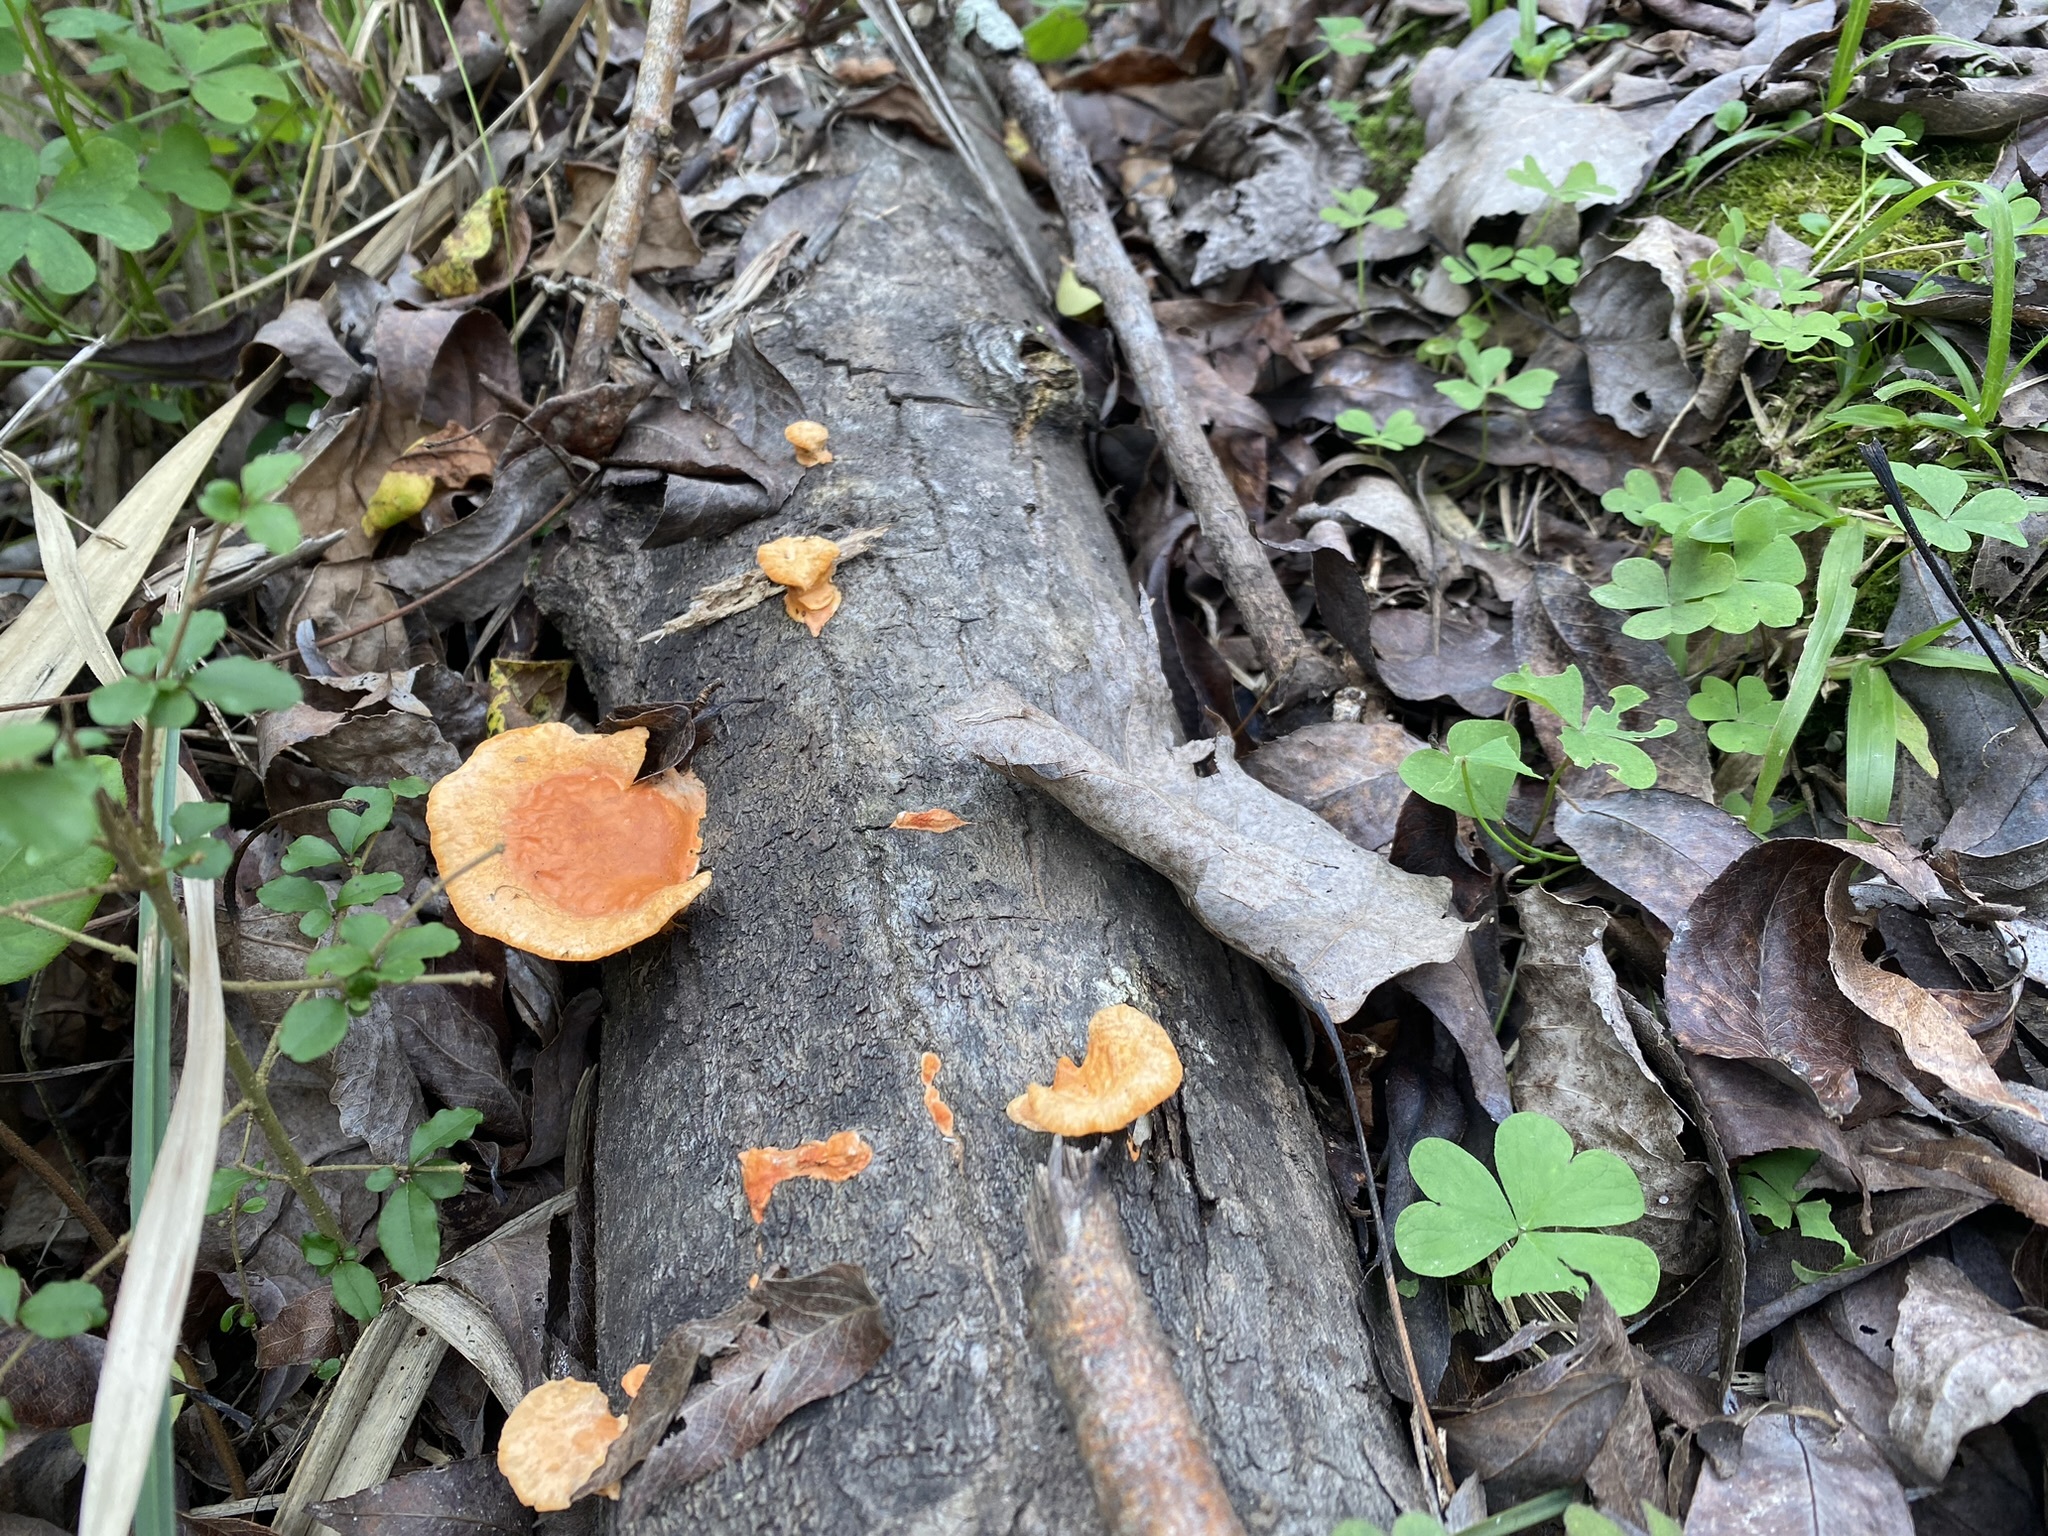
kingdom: Fungi
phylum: Basidiomycota
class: Agaricomycetes
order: Polyporales
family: Polyporaceae
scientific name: Polyporaceae
